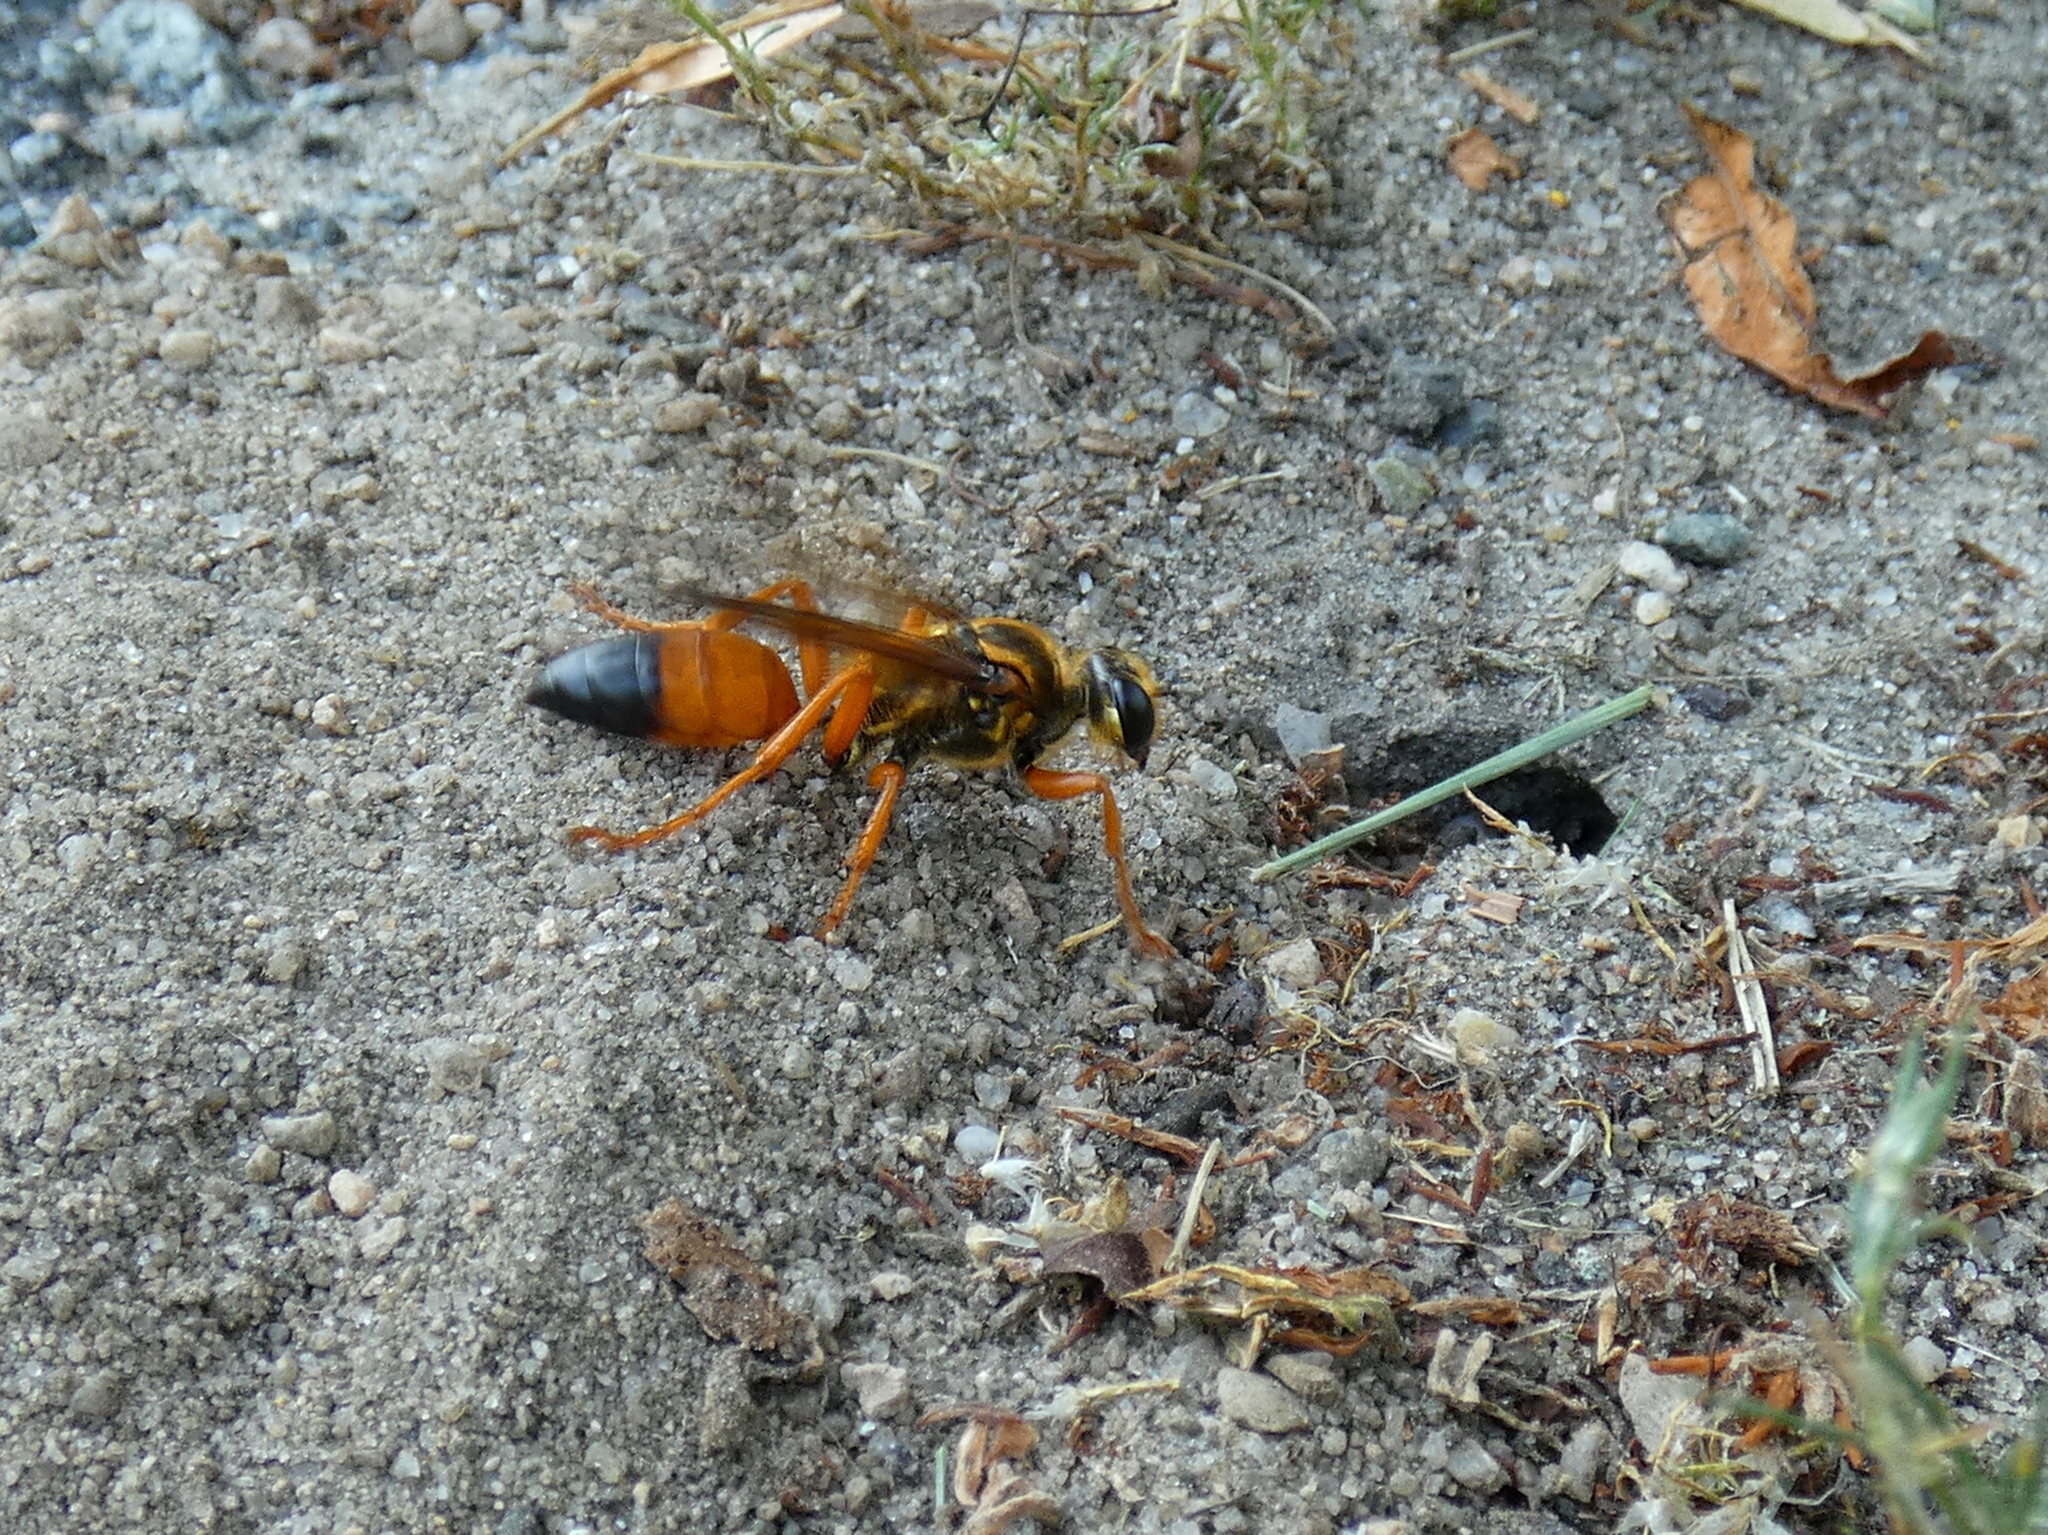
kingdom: Animalia
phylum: Arthropoda
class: Insecta
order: Hymenoptera
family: Sphecidae
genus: Sphex
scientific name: Sphex ichneumoneus
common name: Great golden digger wasp
